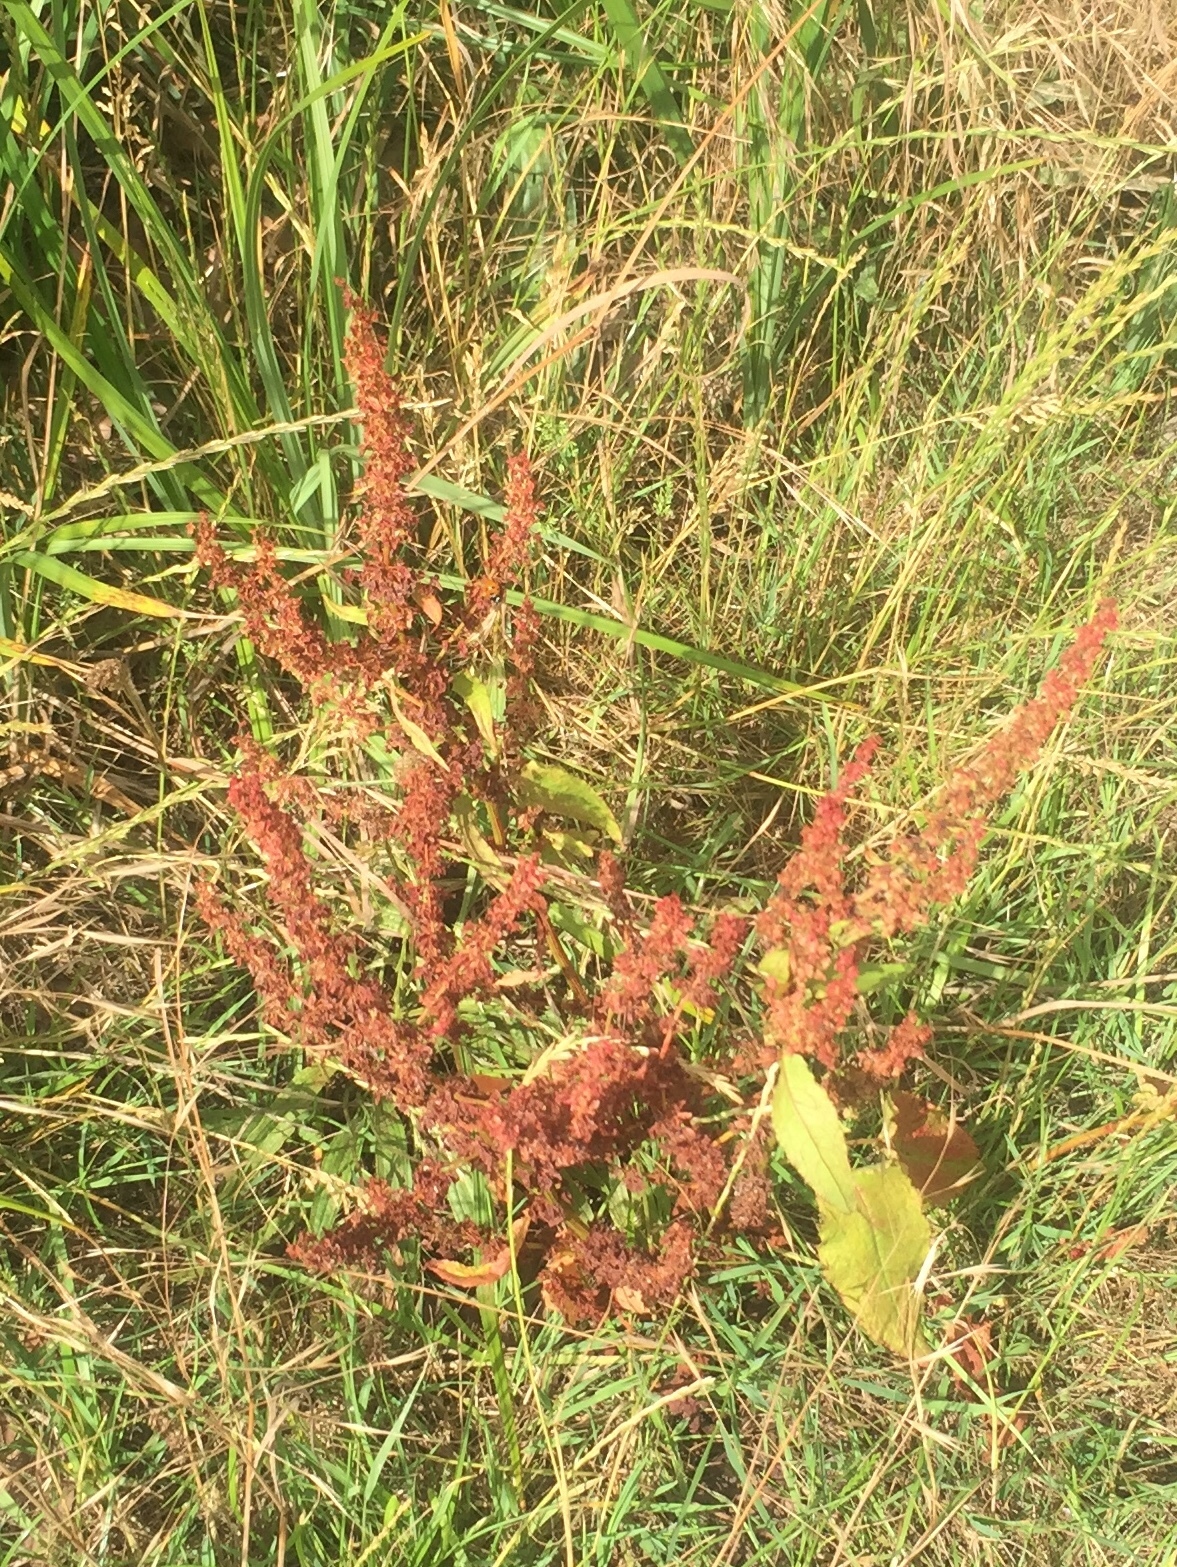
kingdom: Plantae
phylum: Tracheophyta
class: Magnoliopsida
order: Caryophyllales
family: Polygonaceae
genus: Rumex
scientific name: Rumex obtusifolius
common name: Bitter dock
